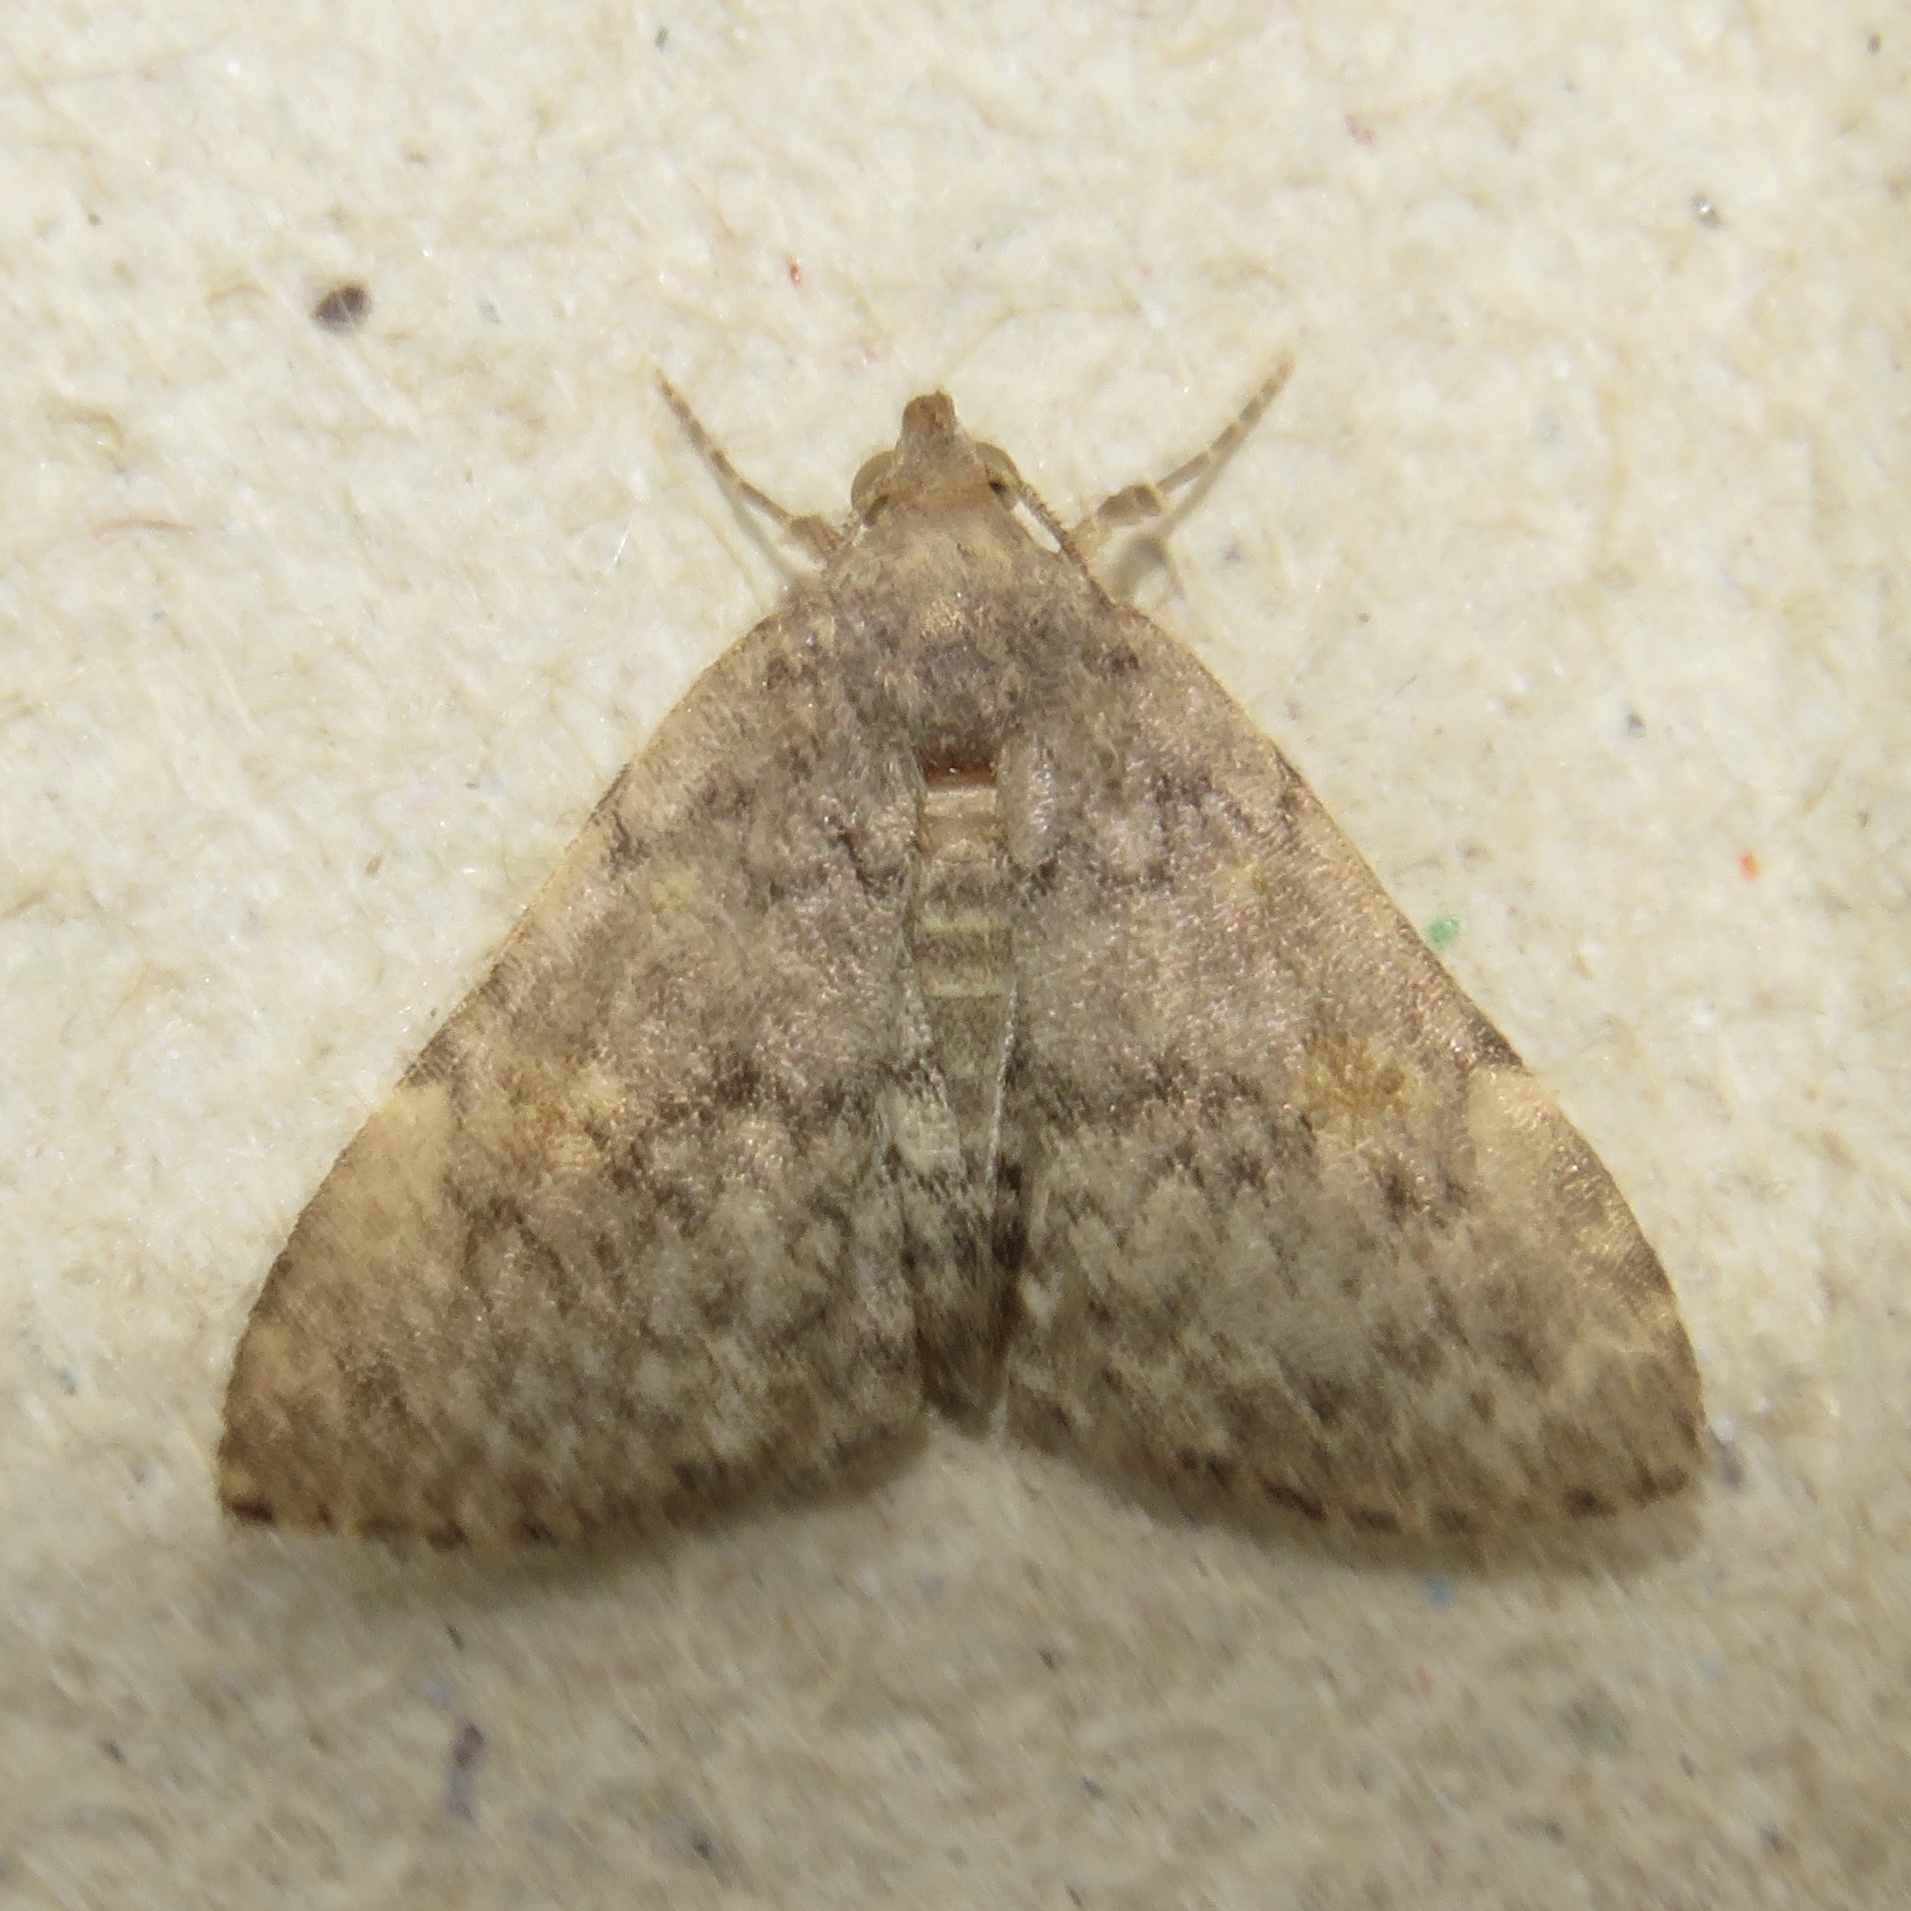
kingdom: Animalia
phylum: Arthropoda
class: Insecta
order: Lepidoptera
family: Erebidae
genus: Idia
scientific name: Idia aemula
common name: Common idia moth
